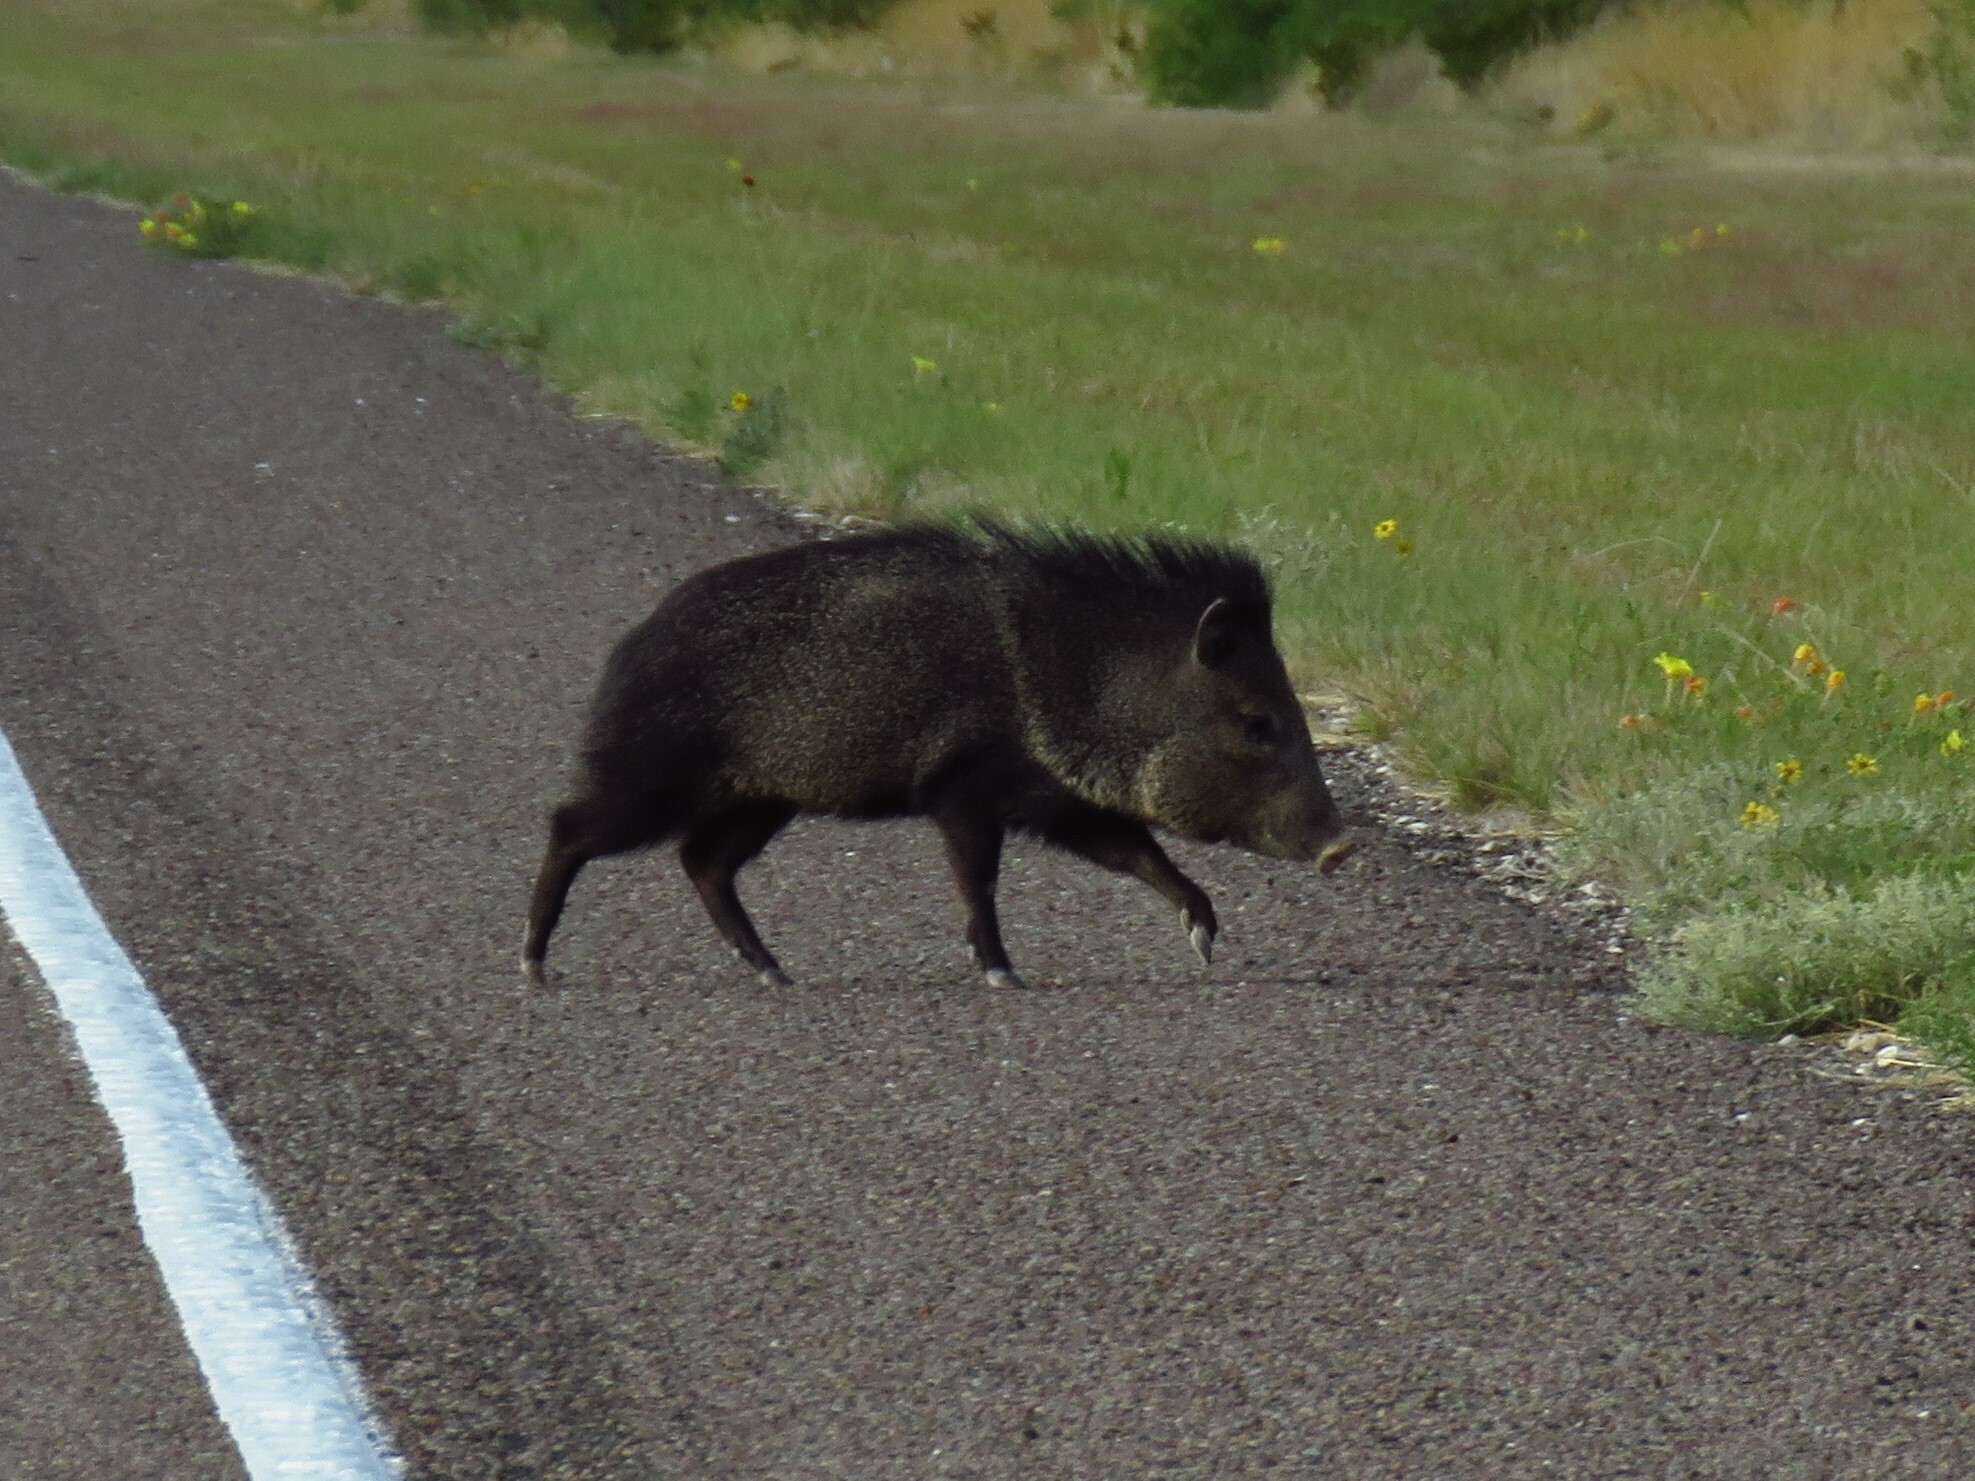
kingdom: Animalia
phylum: Chordata
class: Mammalia
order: Artiodactyla
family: Tayassuidae
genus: Pecari
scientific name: Pecari tajacu
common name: Collared peccary
